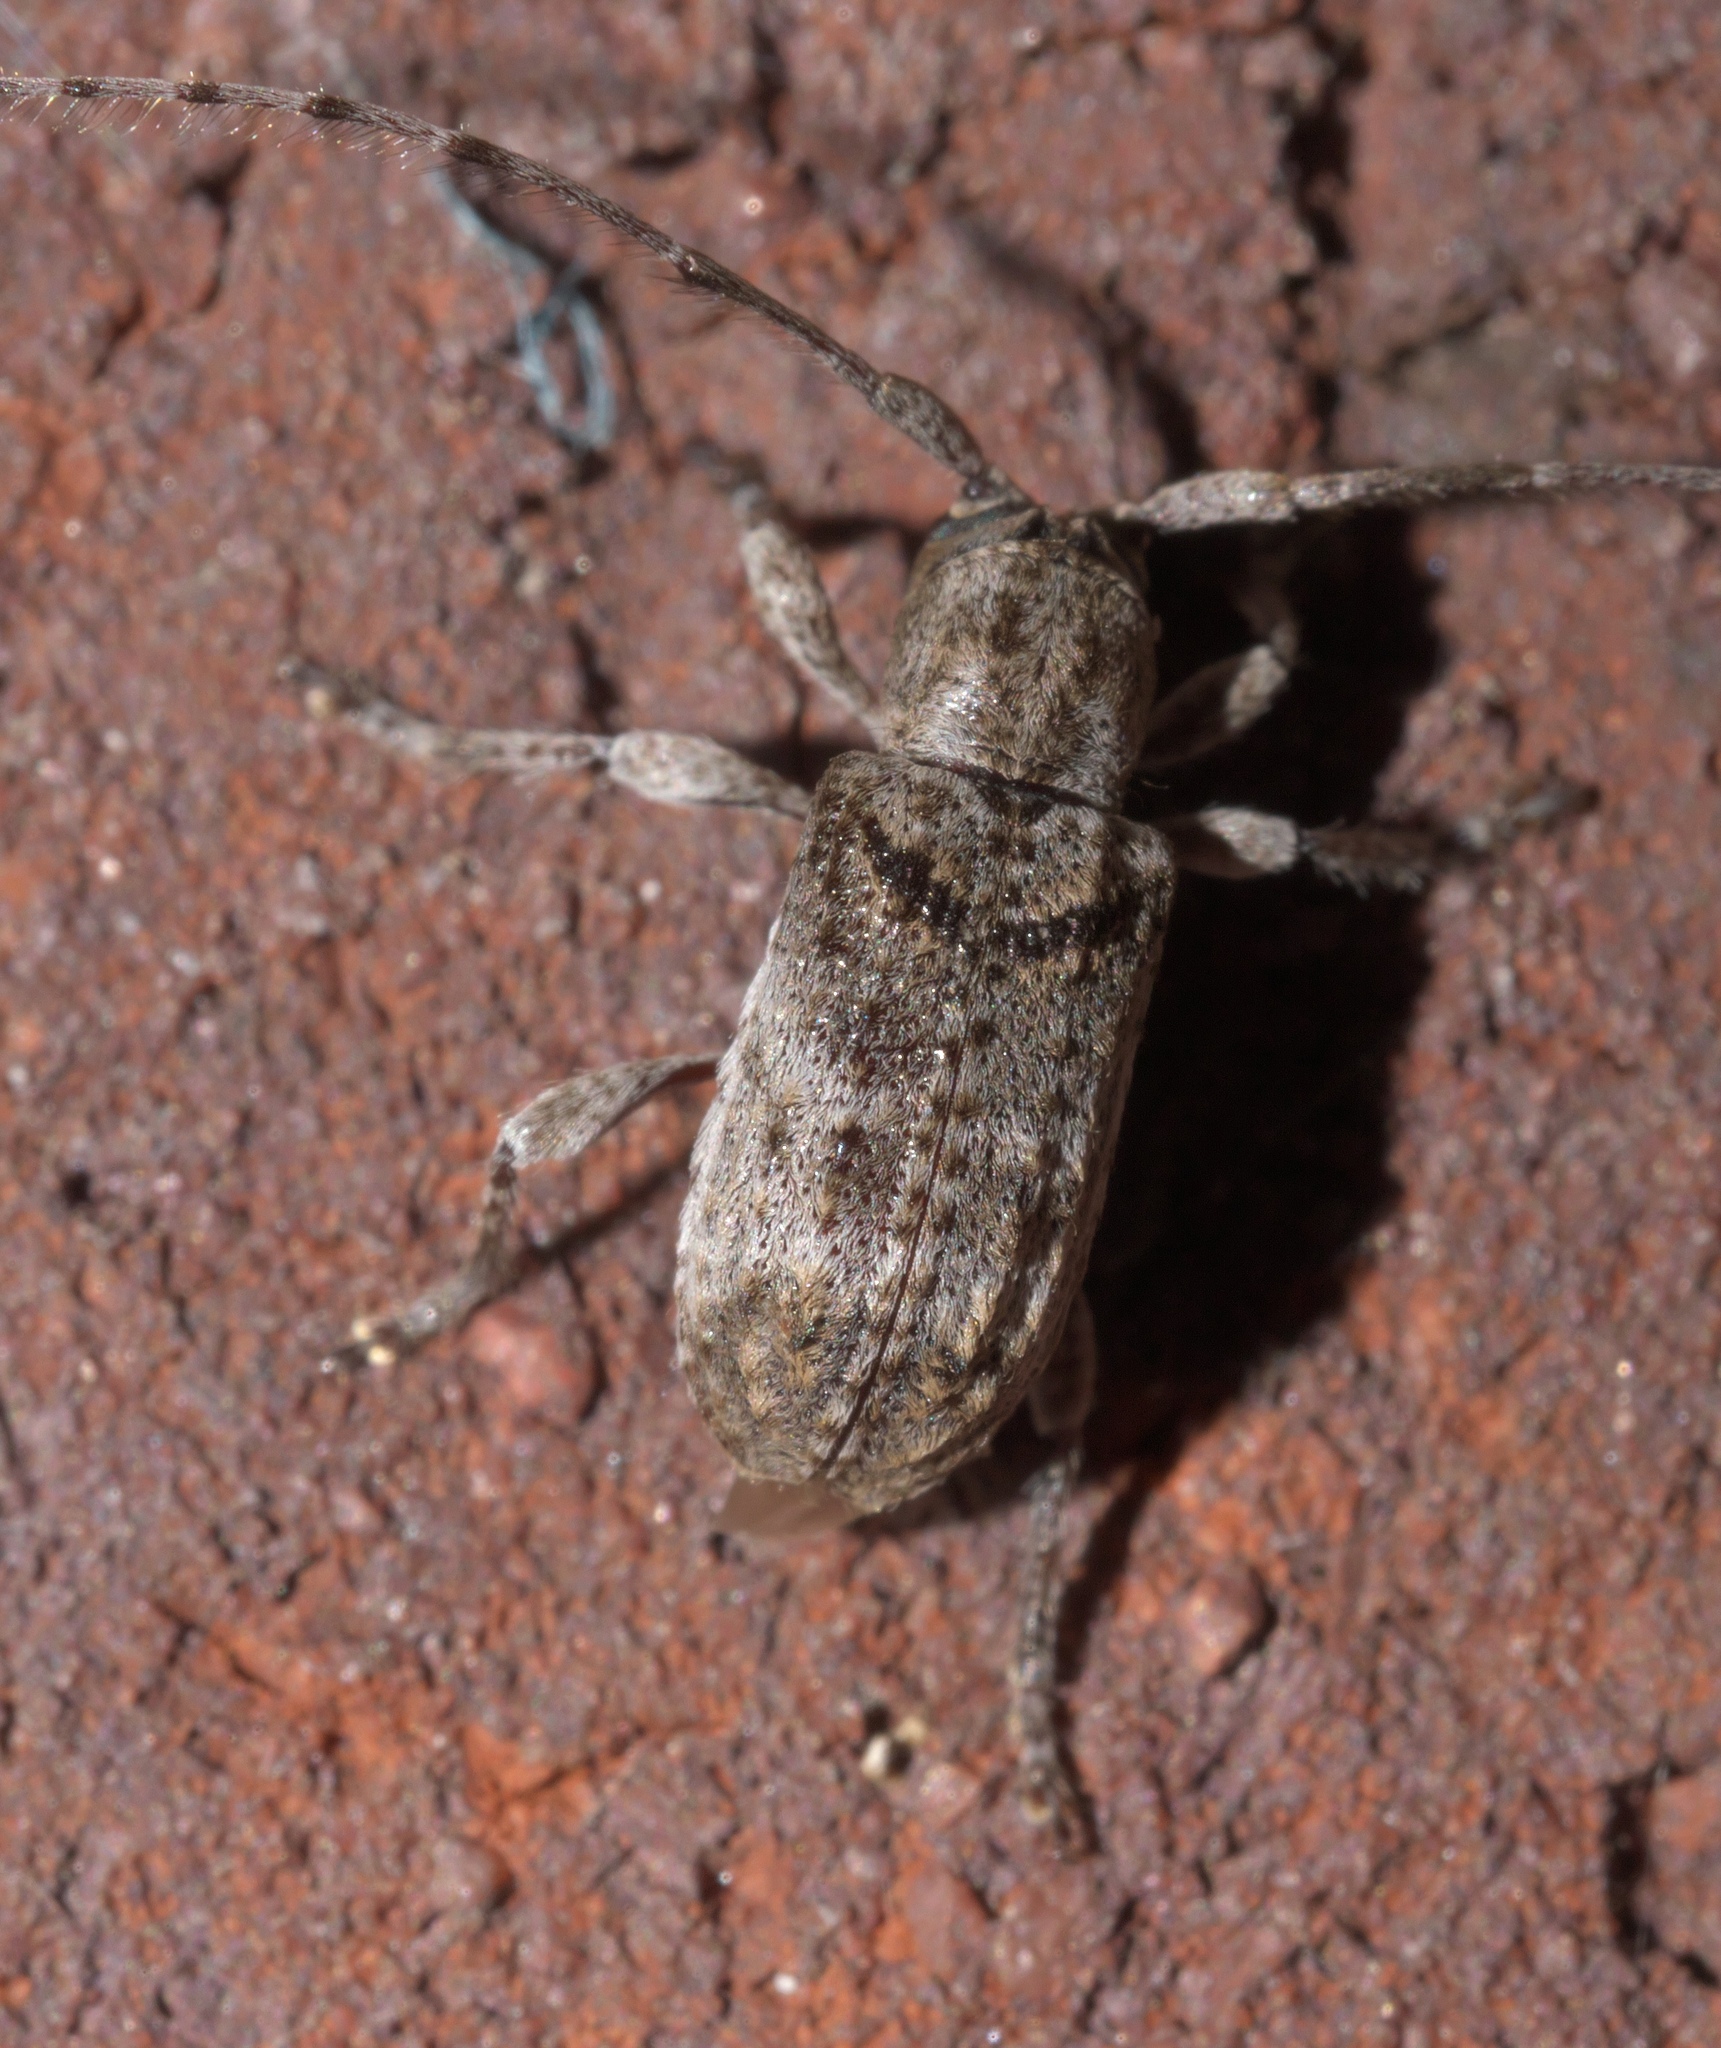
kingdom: Animalia
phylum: Arthropoda
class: Insecta
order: Coleoptera
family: Cerambycidae
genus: Ecyrus
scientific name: Ecyrus dasycerus
